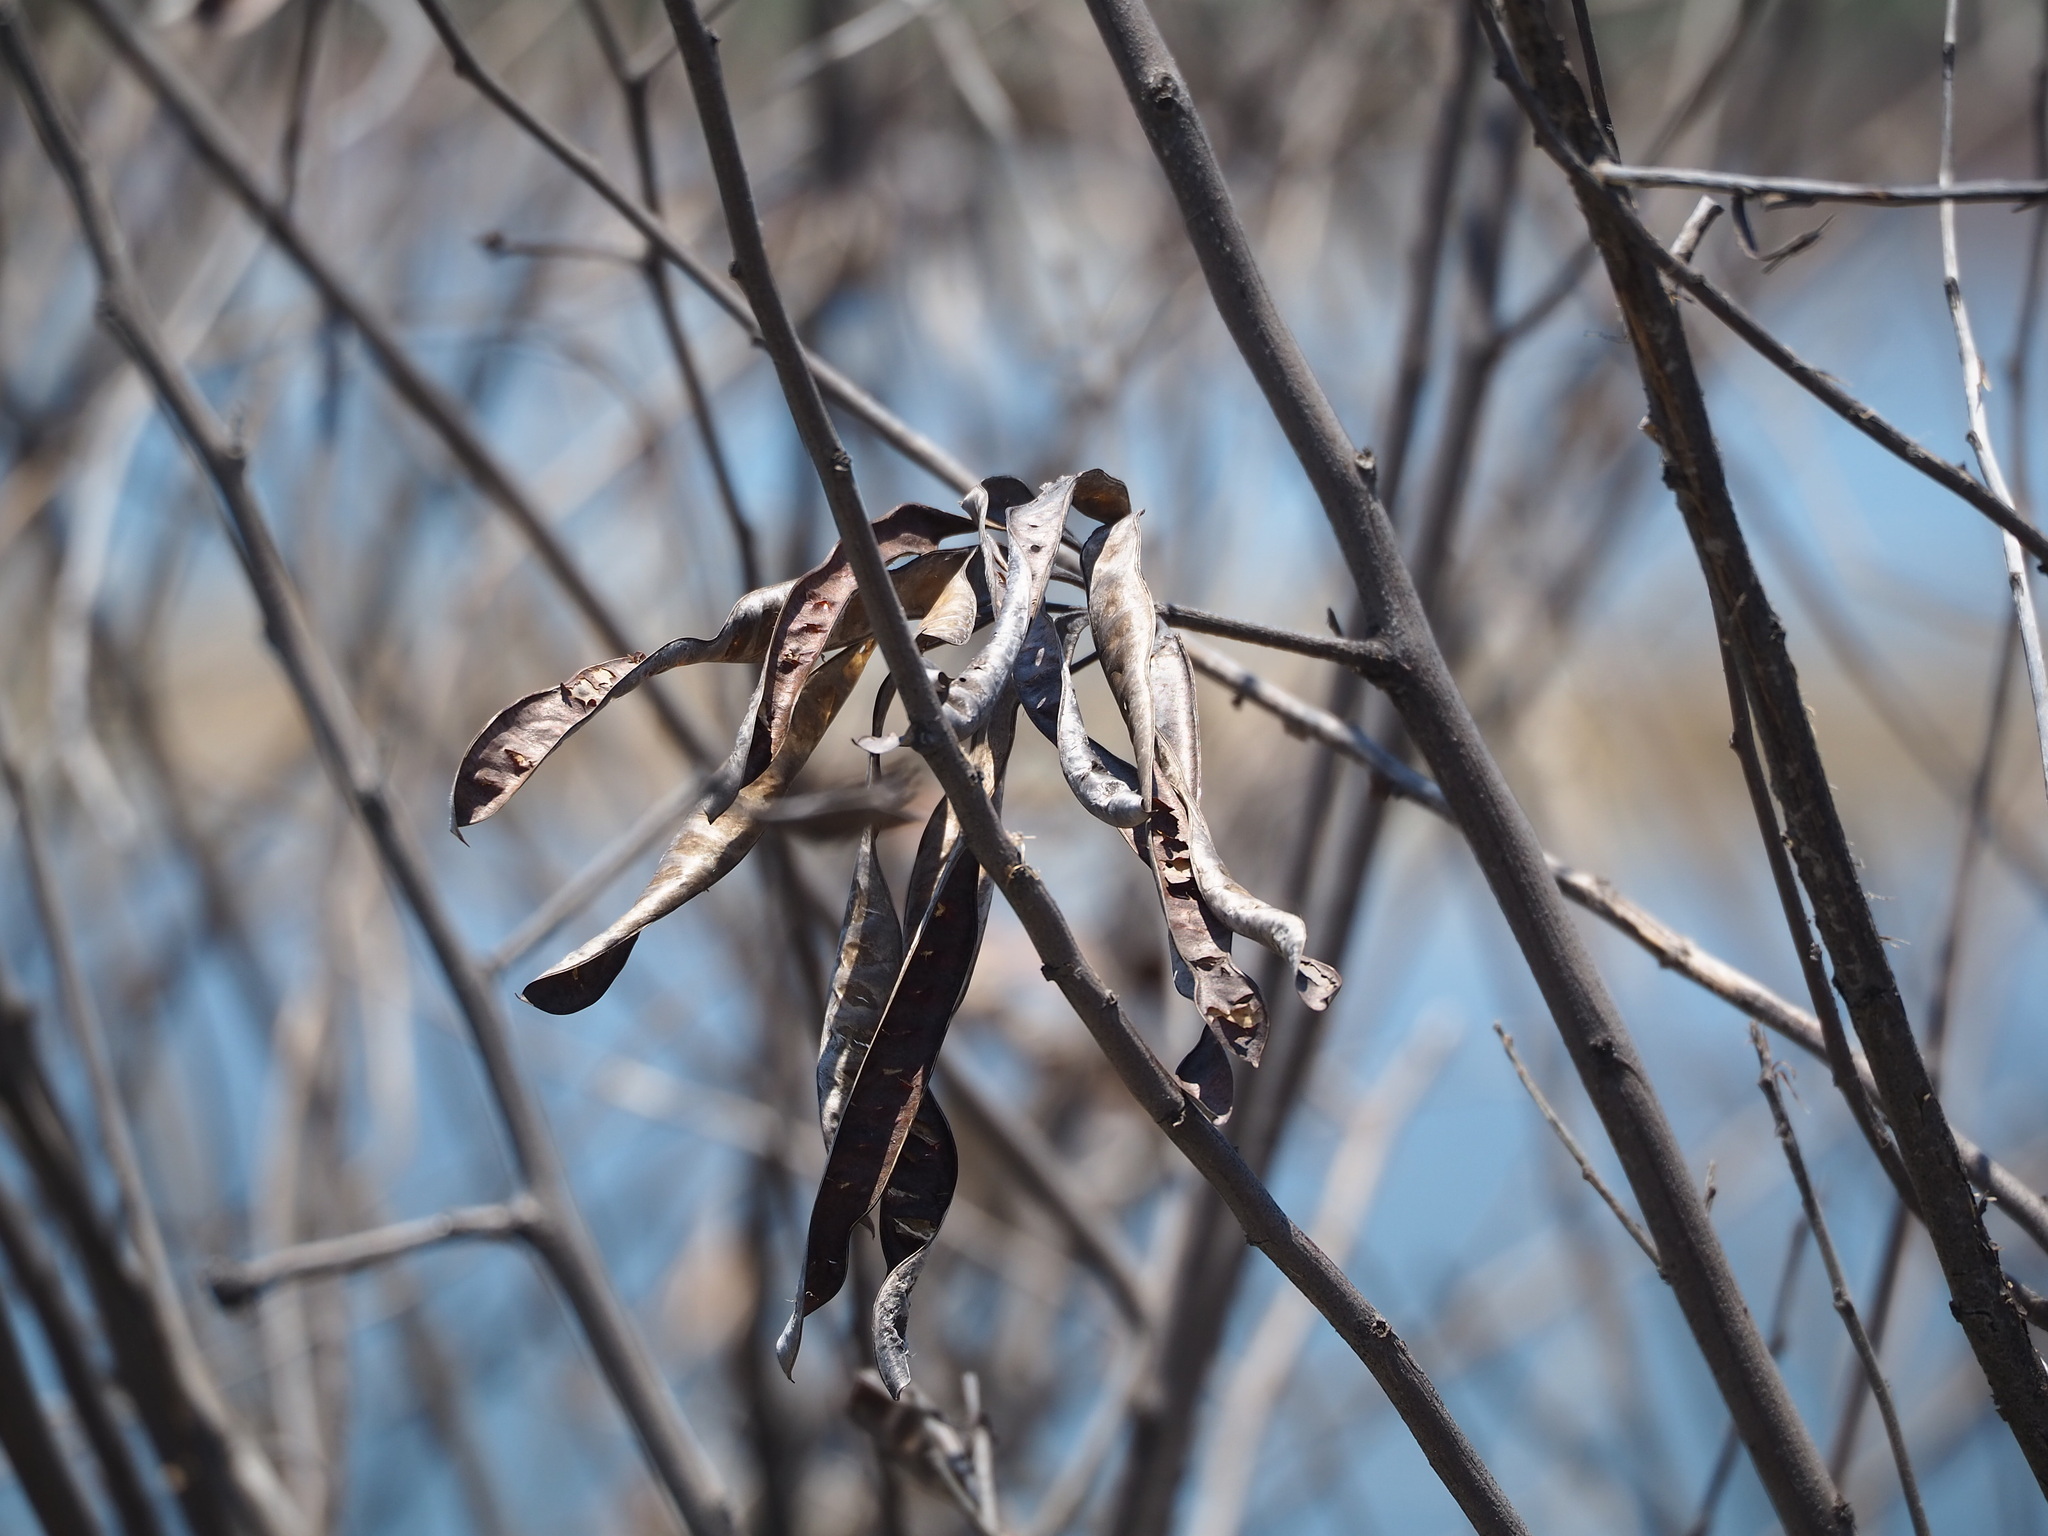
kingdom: Plantae
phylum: Tracheophyta
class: Magnoliopsida
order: Fabales
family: Fabaceae
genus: Leucaena
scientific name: Leucaena leucocephala
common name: White leadtree
